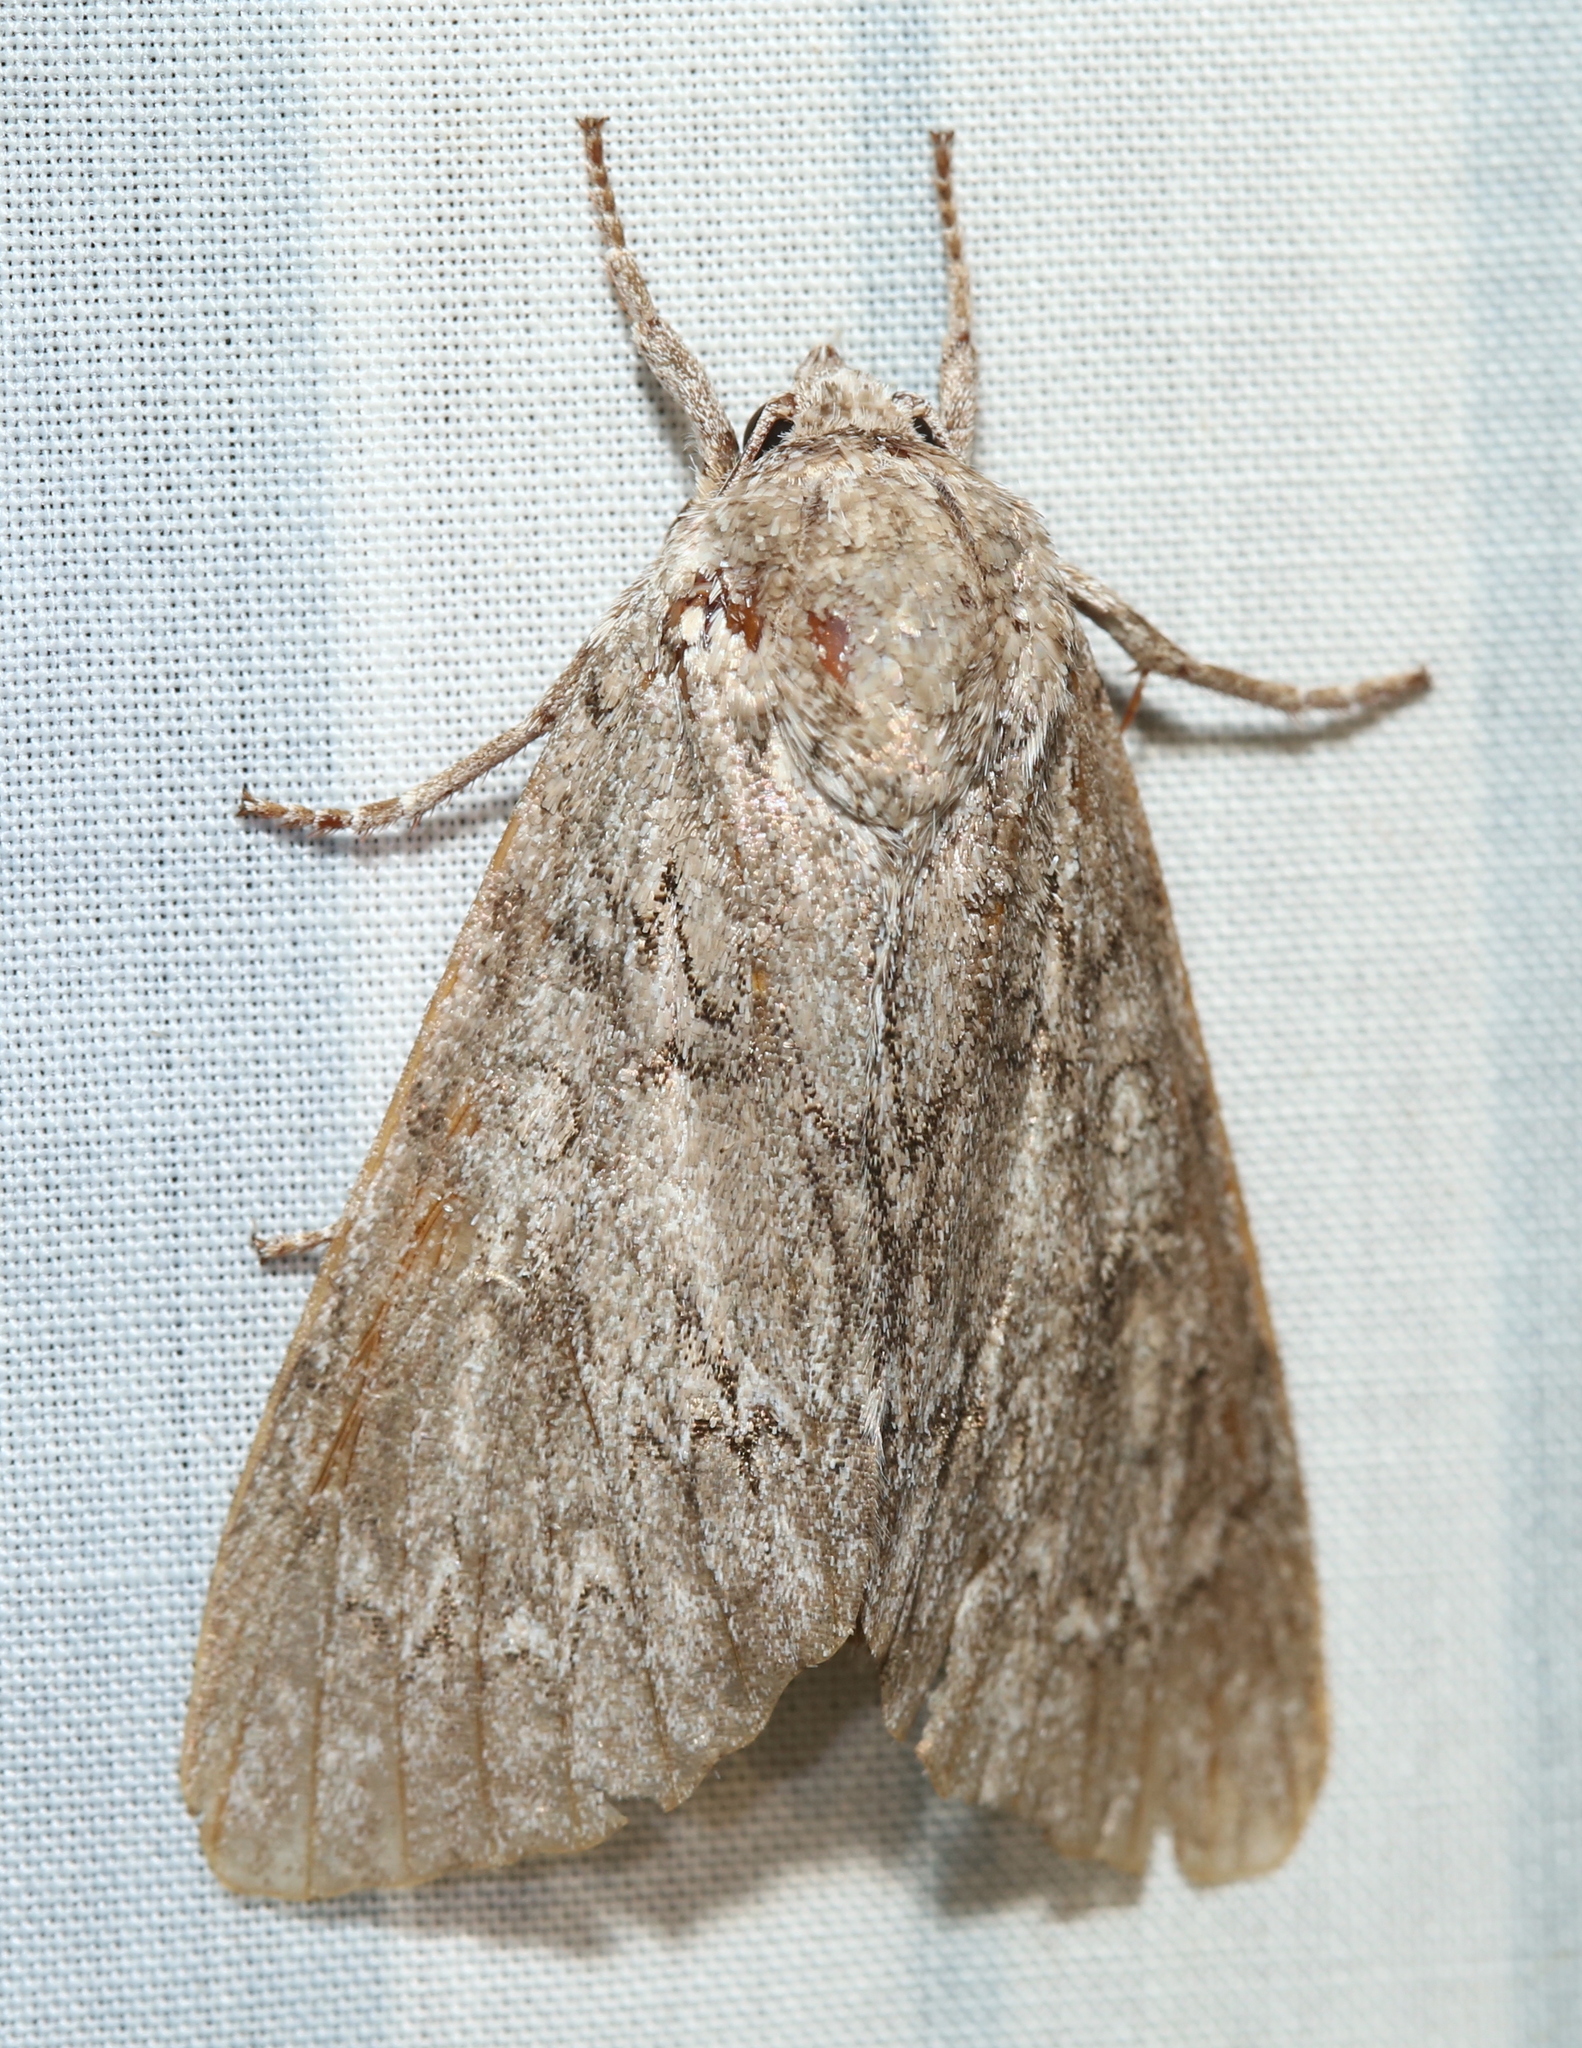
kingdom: Animalia
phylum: Arthropoda
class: Insecta
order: Lepidoptera
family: Noctuidae
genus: Acronicta
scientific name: Acronicta americana
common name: American dagger
